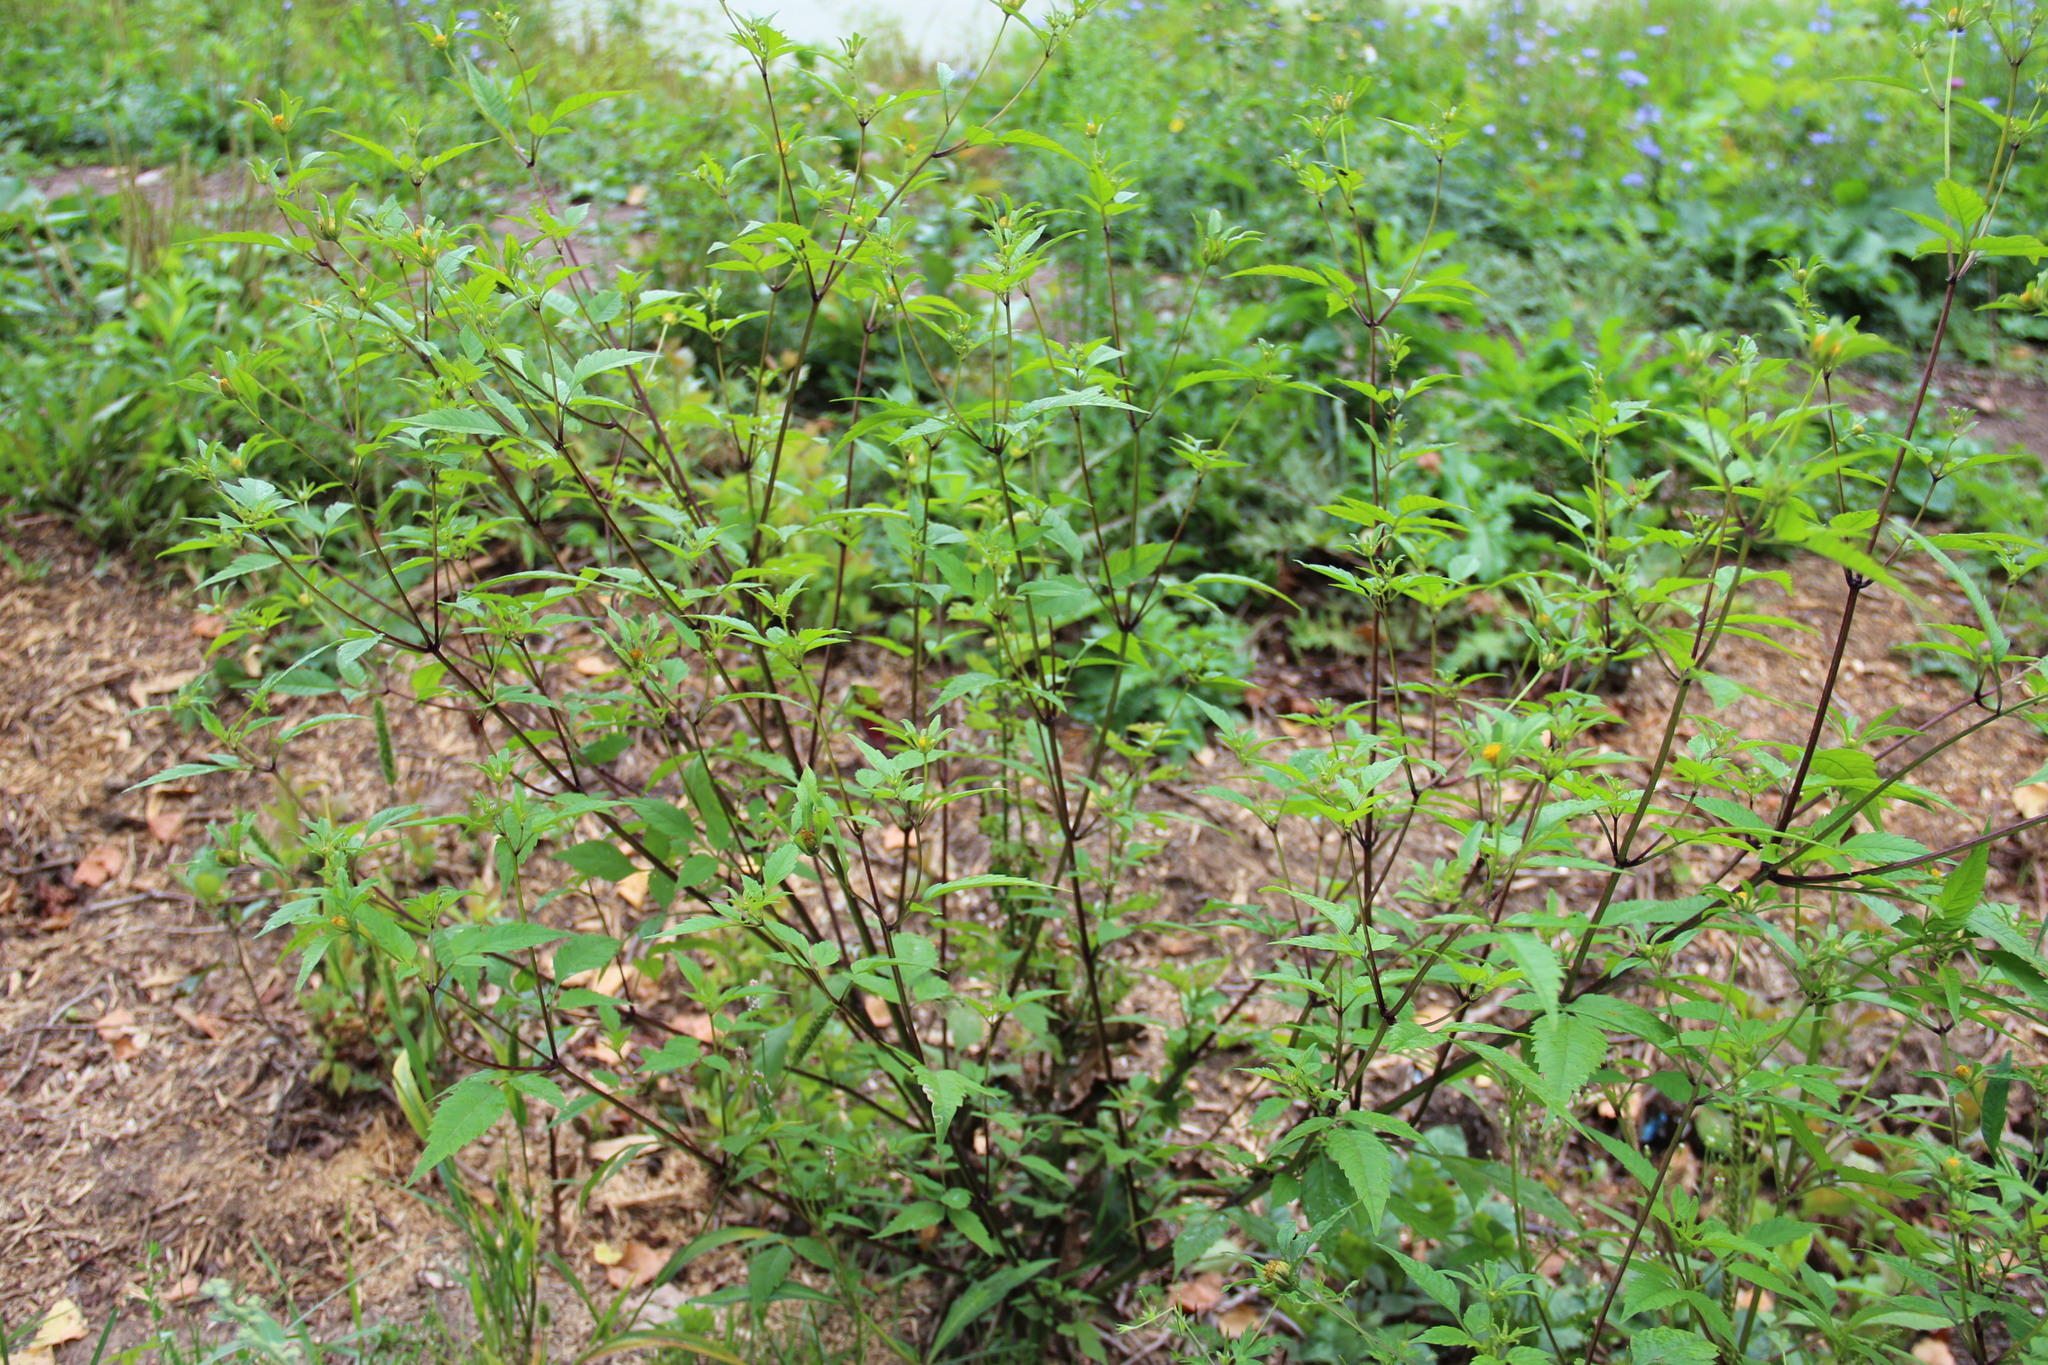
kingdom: Plantae
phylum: Tracheophyta
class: Magnoliopsida
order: Asterales
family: Asteraceae
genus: Bidens
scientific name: Bidens frondosa
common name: Beggarticks
